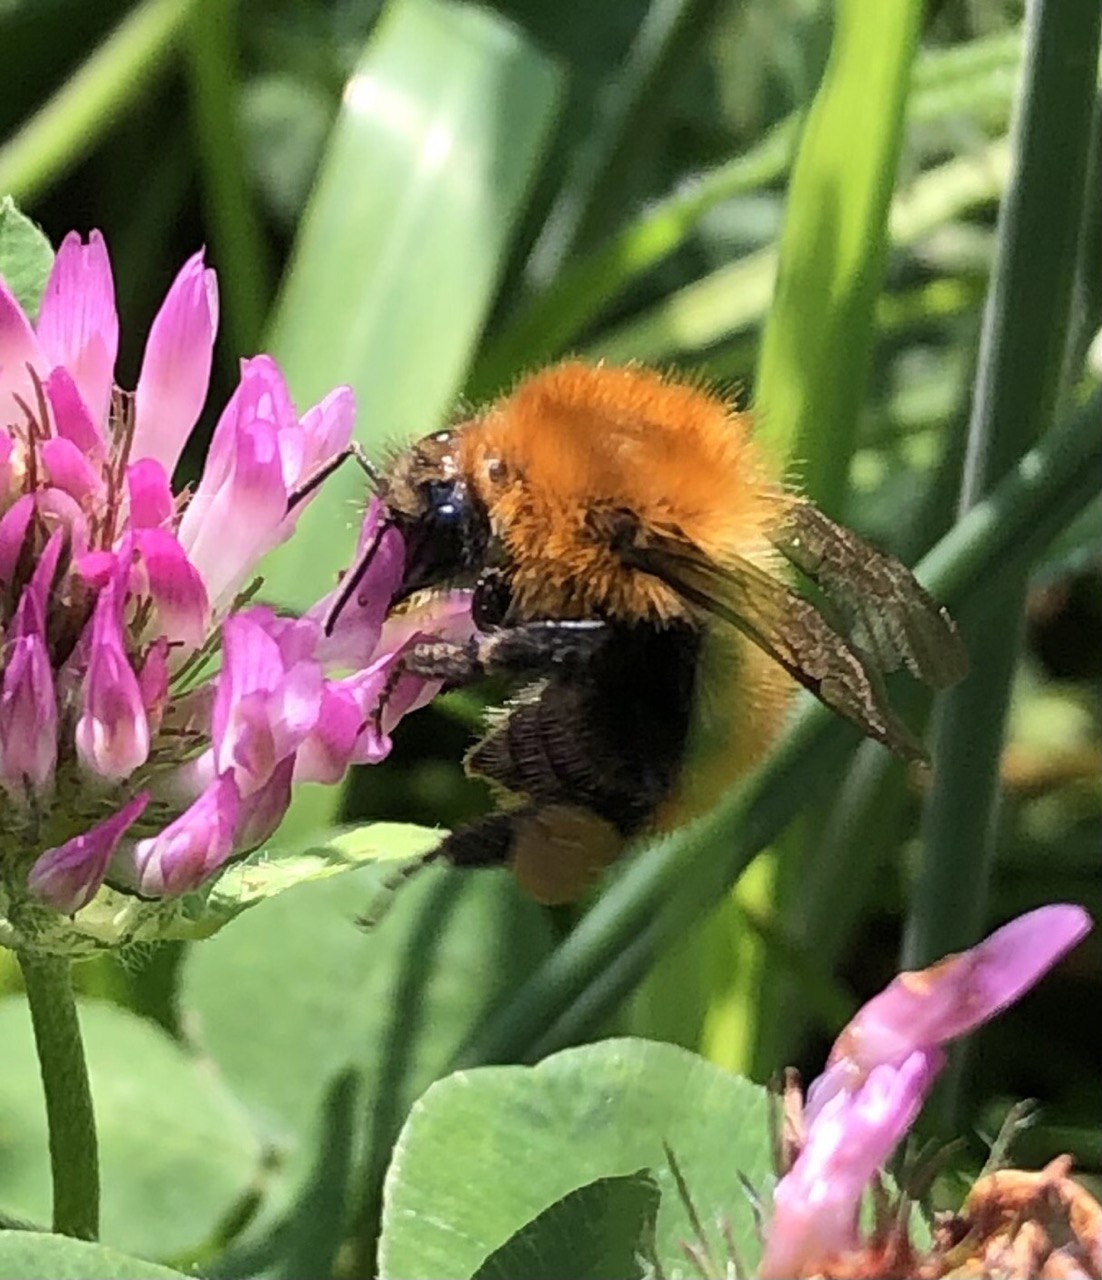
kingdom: Animalia
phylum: Arthropoda
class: Insecta
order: Hymenoptera
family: Apidae
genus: Bombus
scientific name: Bombus pascuorum
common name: Common carder bee
